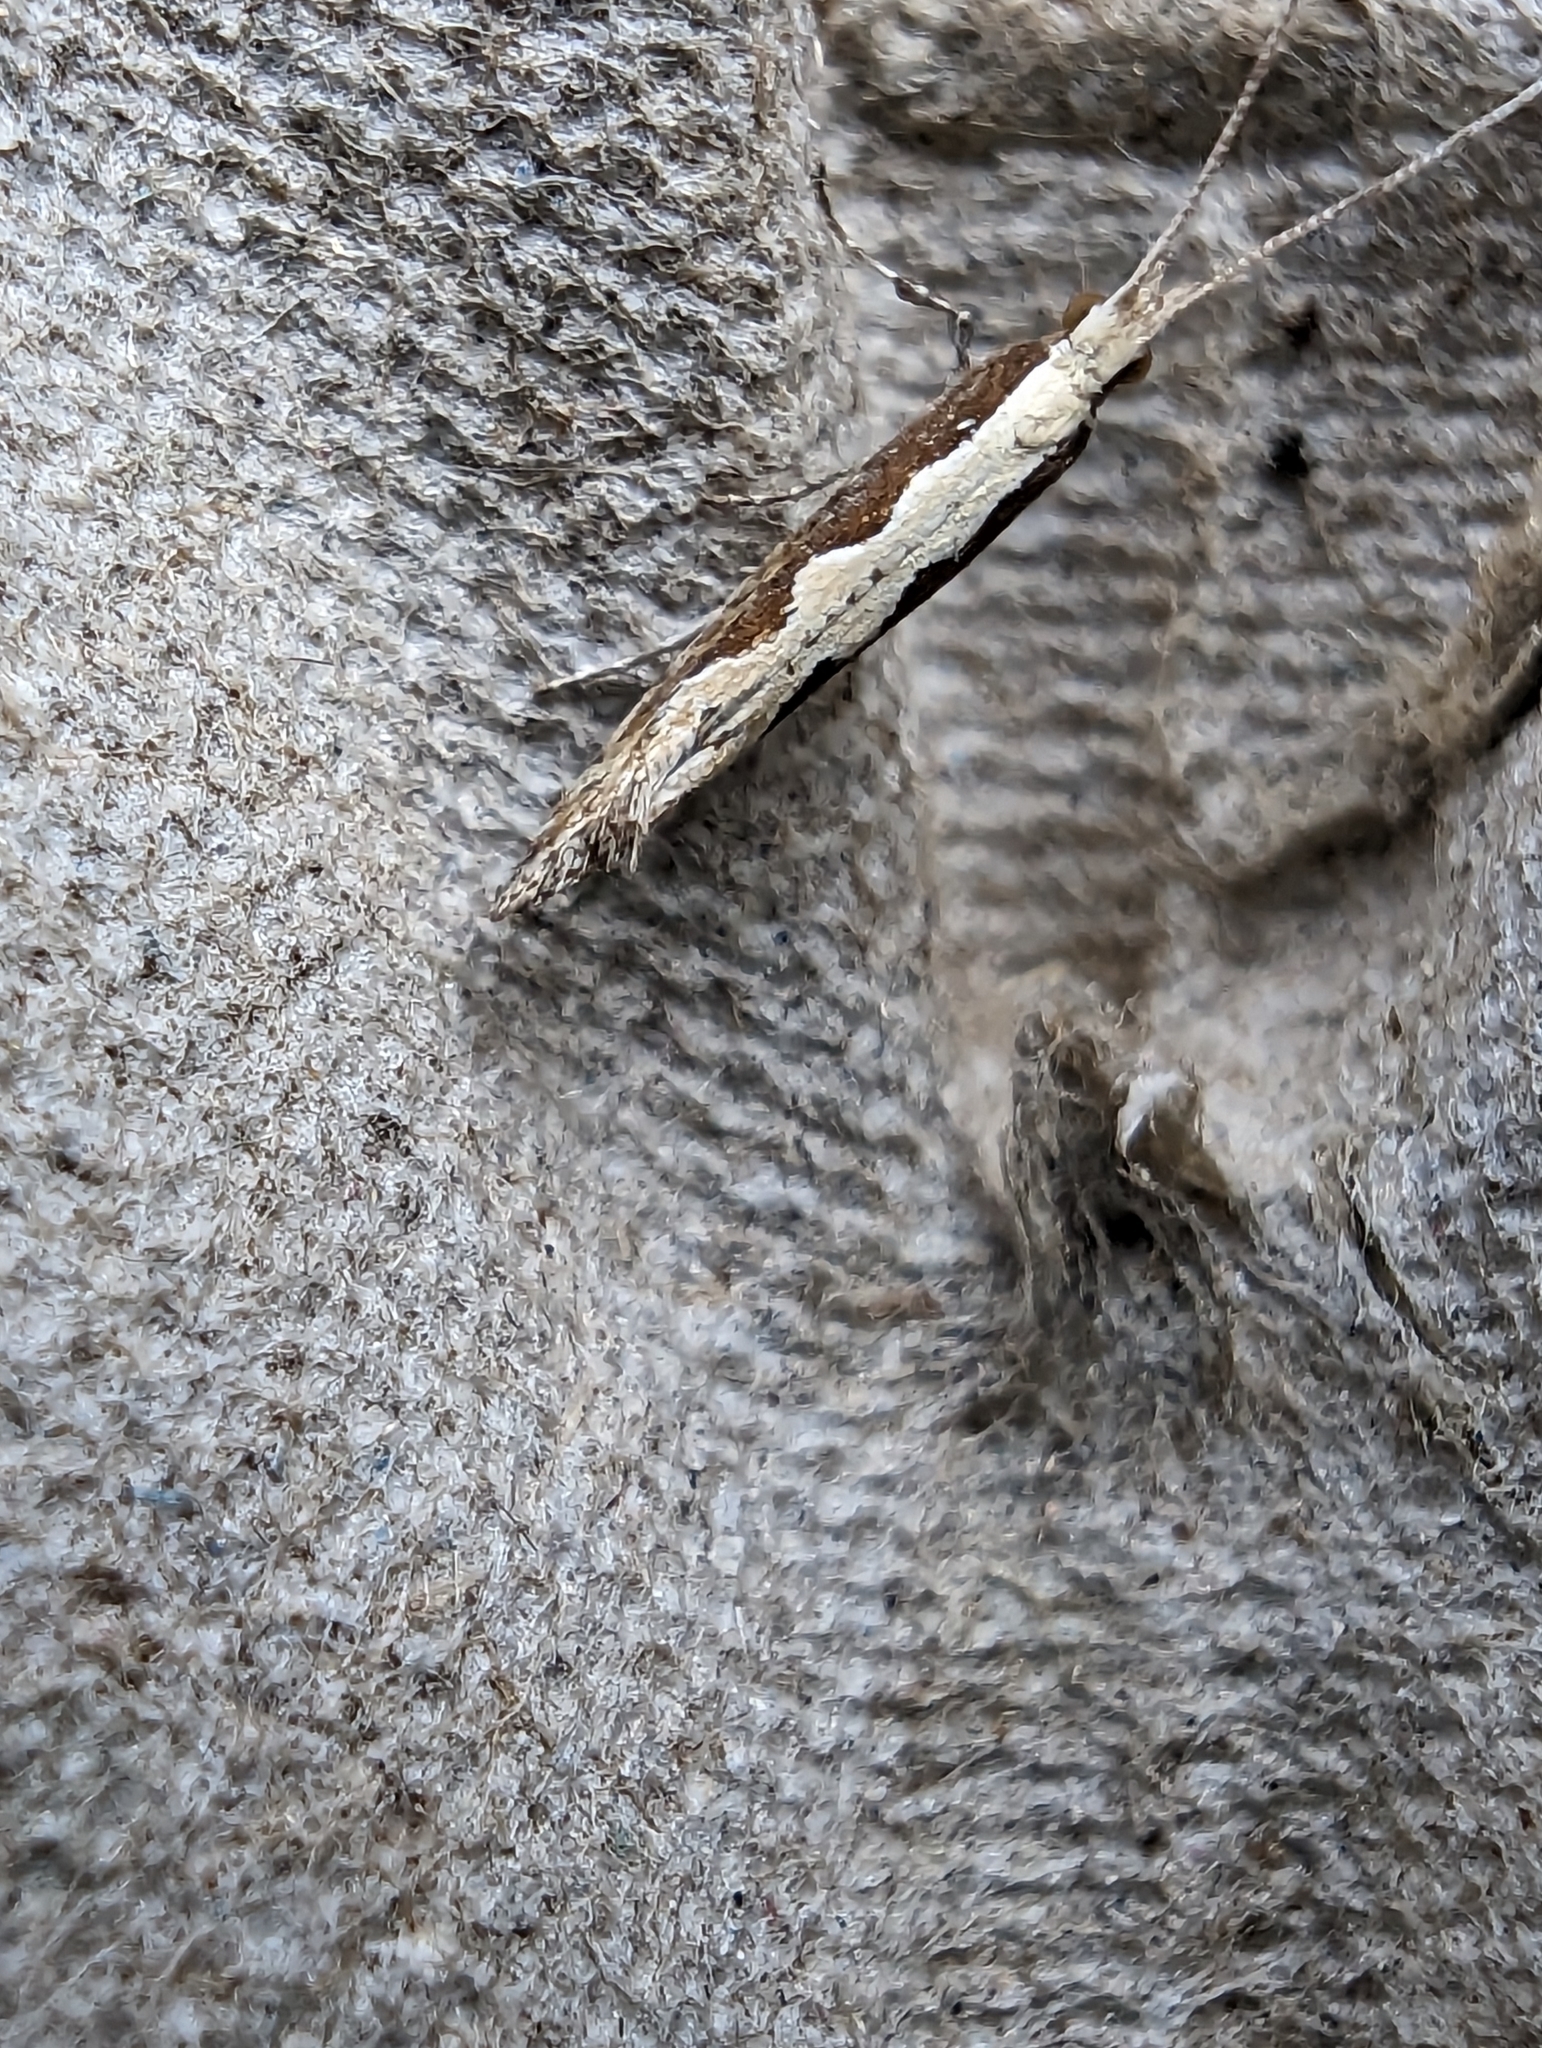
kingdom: Animalia
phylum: Arthropoda
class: Insecta
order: Lepidoptera
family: Plutellidae
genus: Plutella
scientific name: Plutella xylostella
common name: Diamond-back moth
